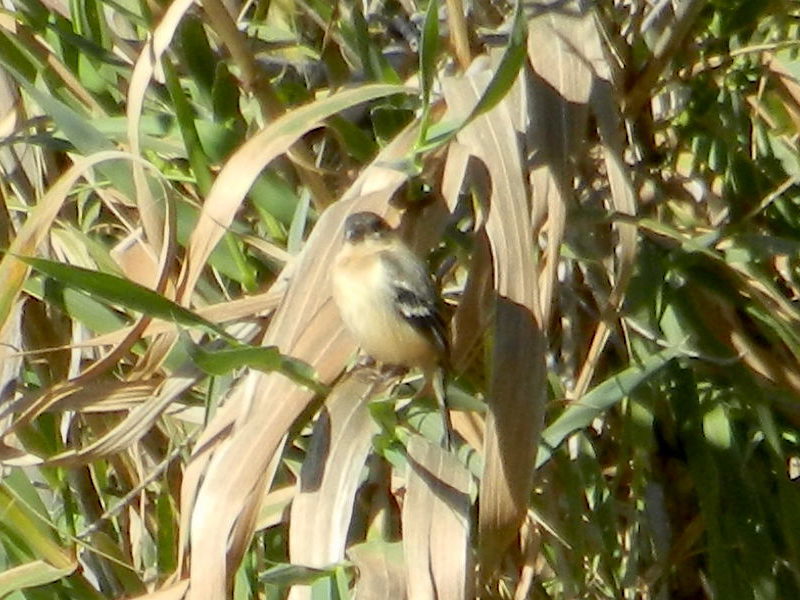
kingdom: Animalia
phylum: Chordata
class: Aves
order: Passeriformes
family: Thraupidae
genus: Sporophila
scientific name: Sporophila morelleti
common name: Morelet's seedeater
